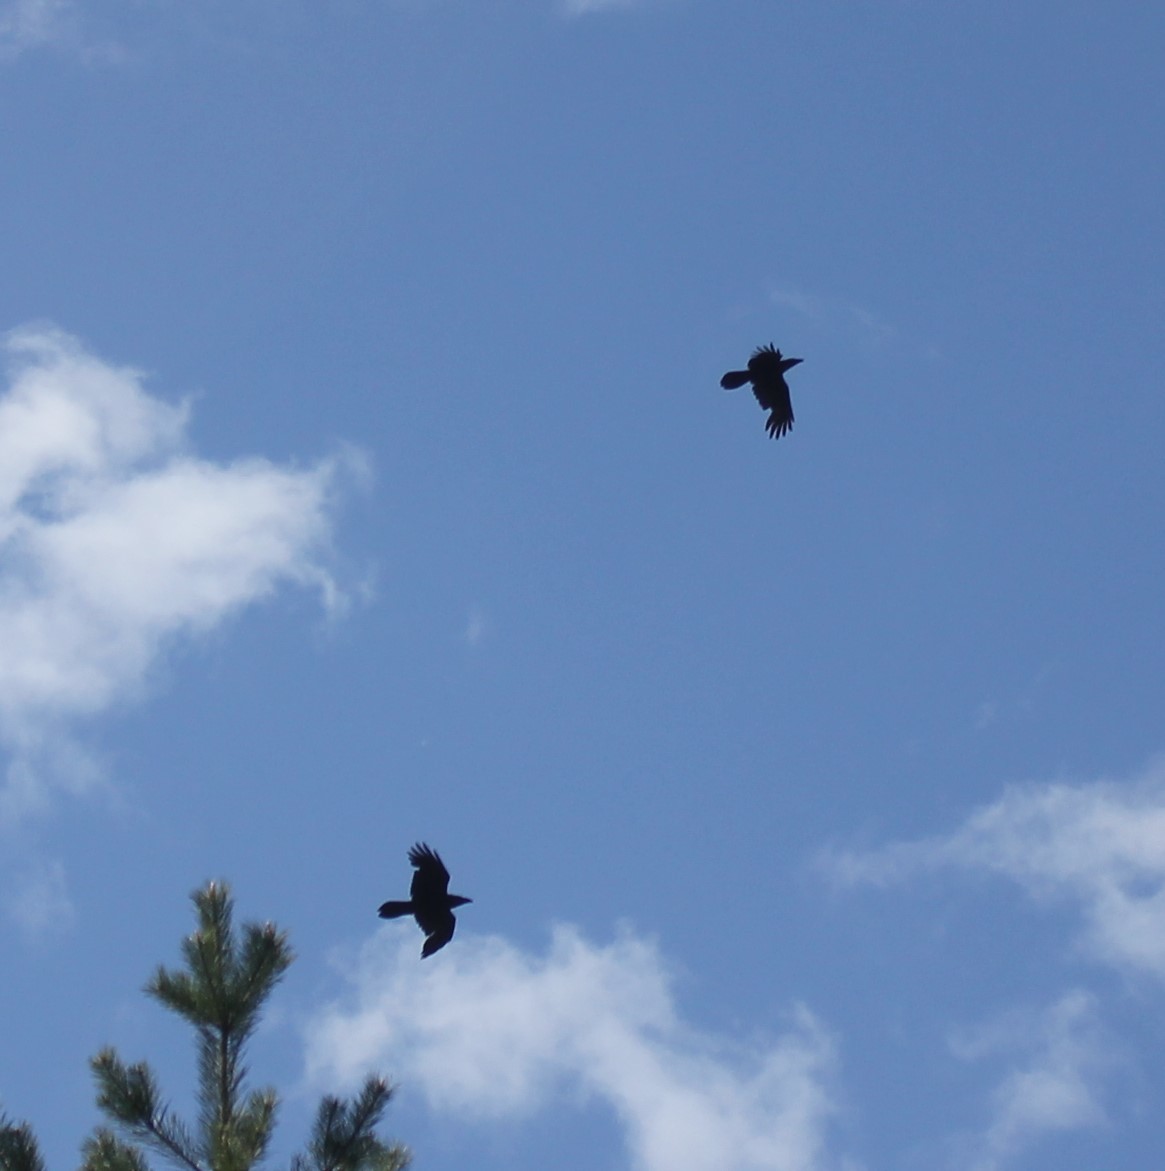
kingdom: Animalia
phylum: Chordata
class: Aves
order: Passeriformes
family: Corvidae
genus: Corvus
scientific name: Corvus corax
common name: Common raven
